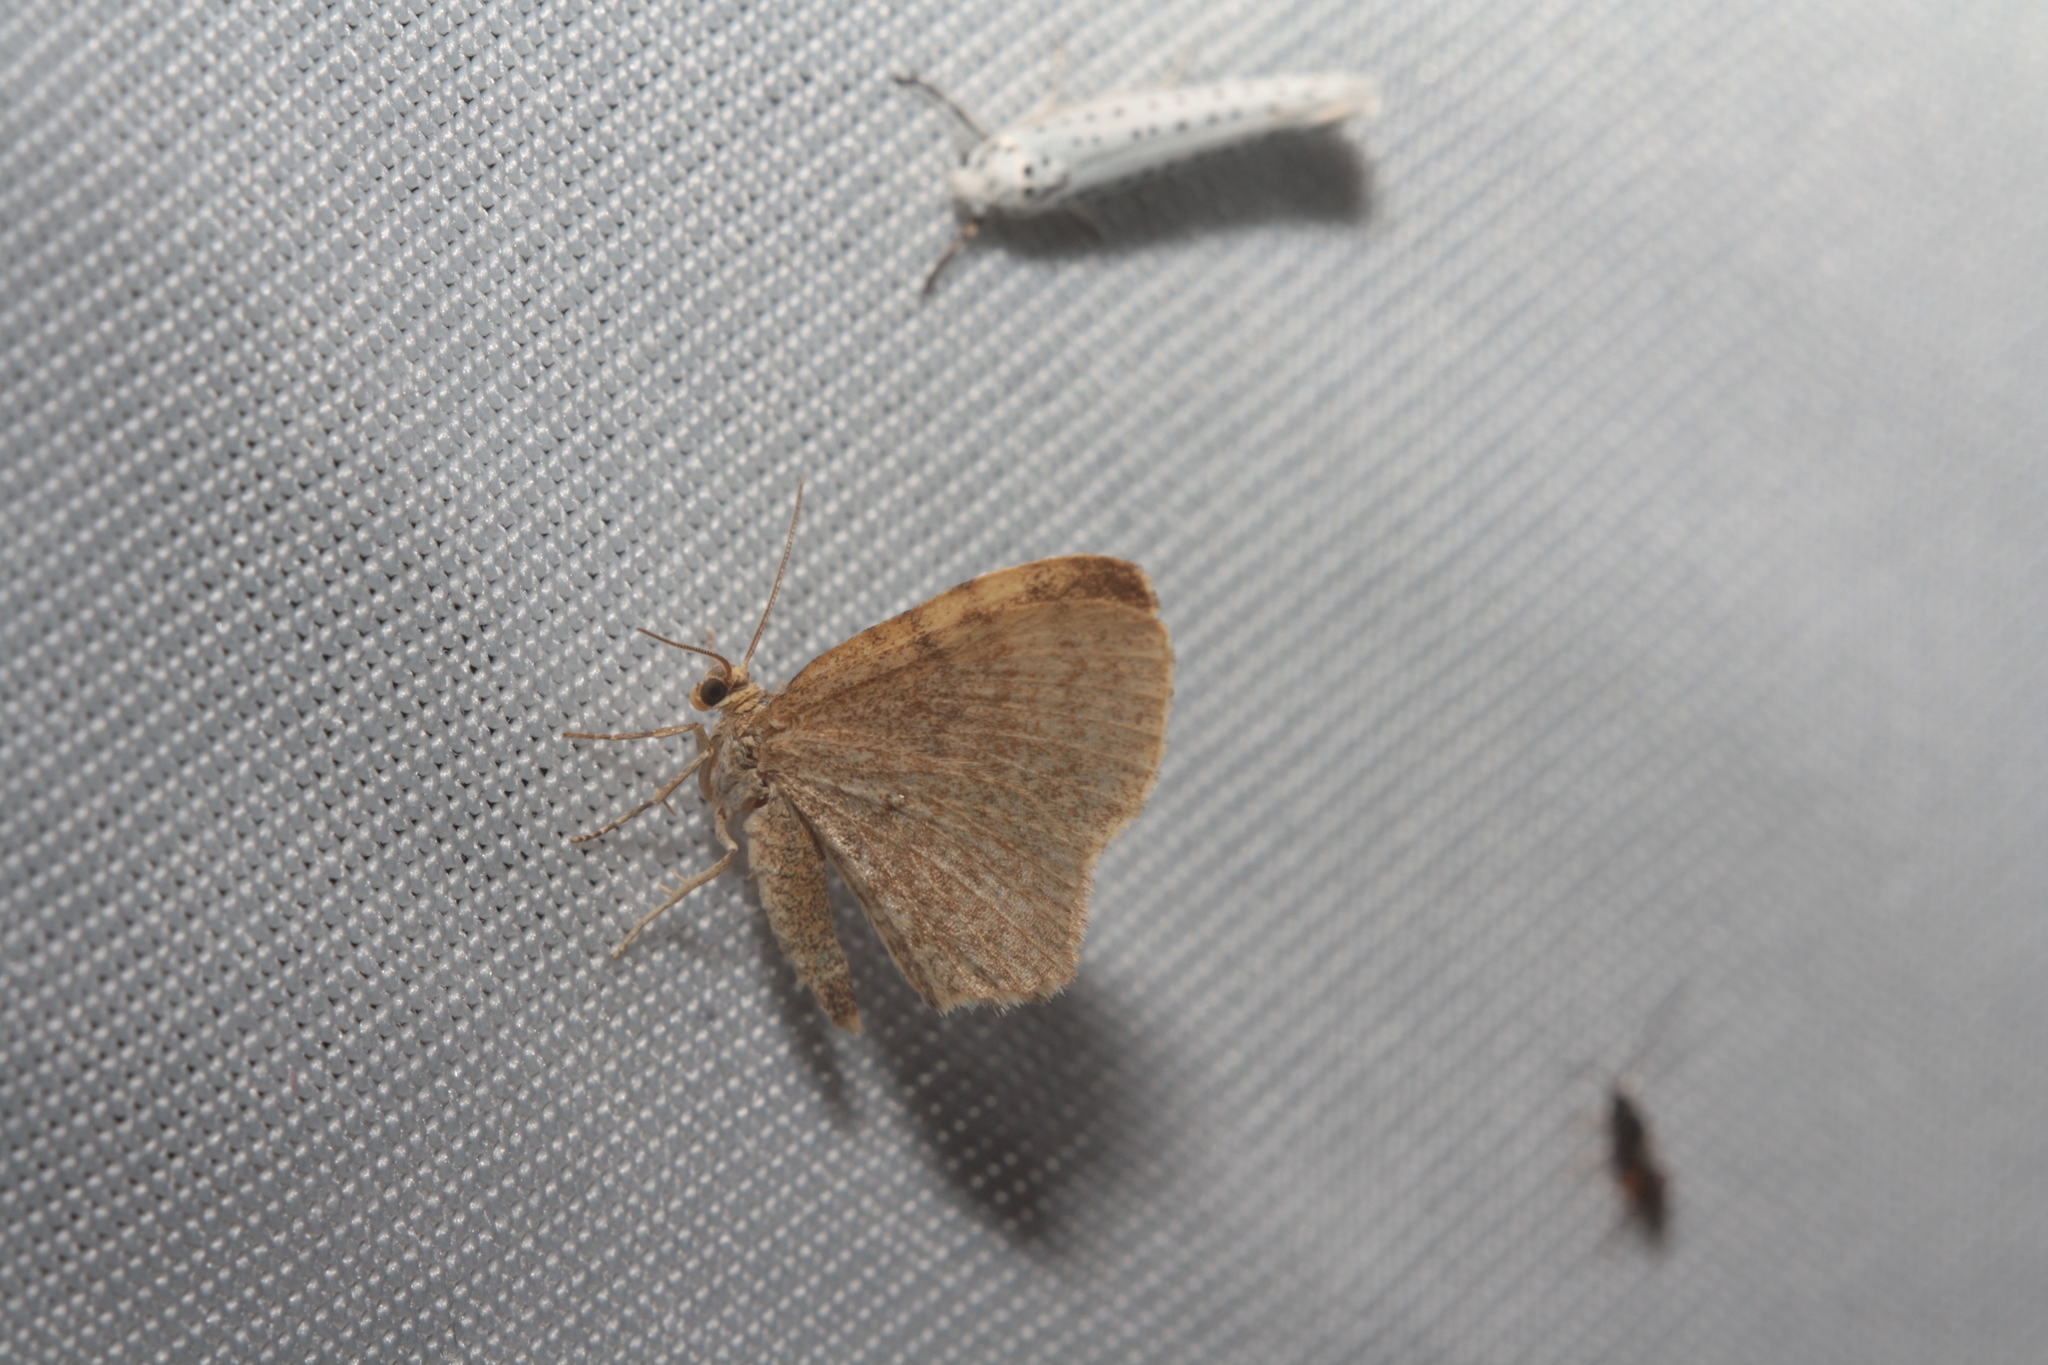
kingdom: Animalia
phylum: Arthropoda
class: Insecta
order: Lepidoptera
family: Geometridae
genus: Euchoeca
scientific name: Euchoeca nebulata
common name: Dingy shell
